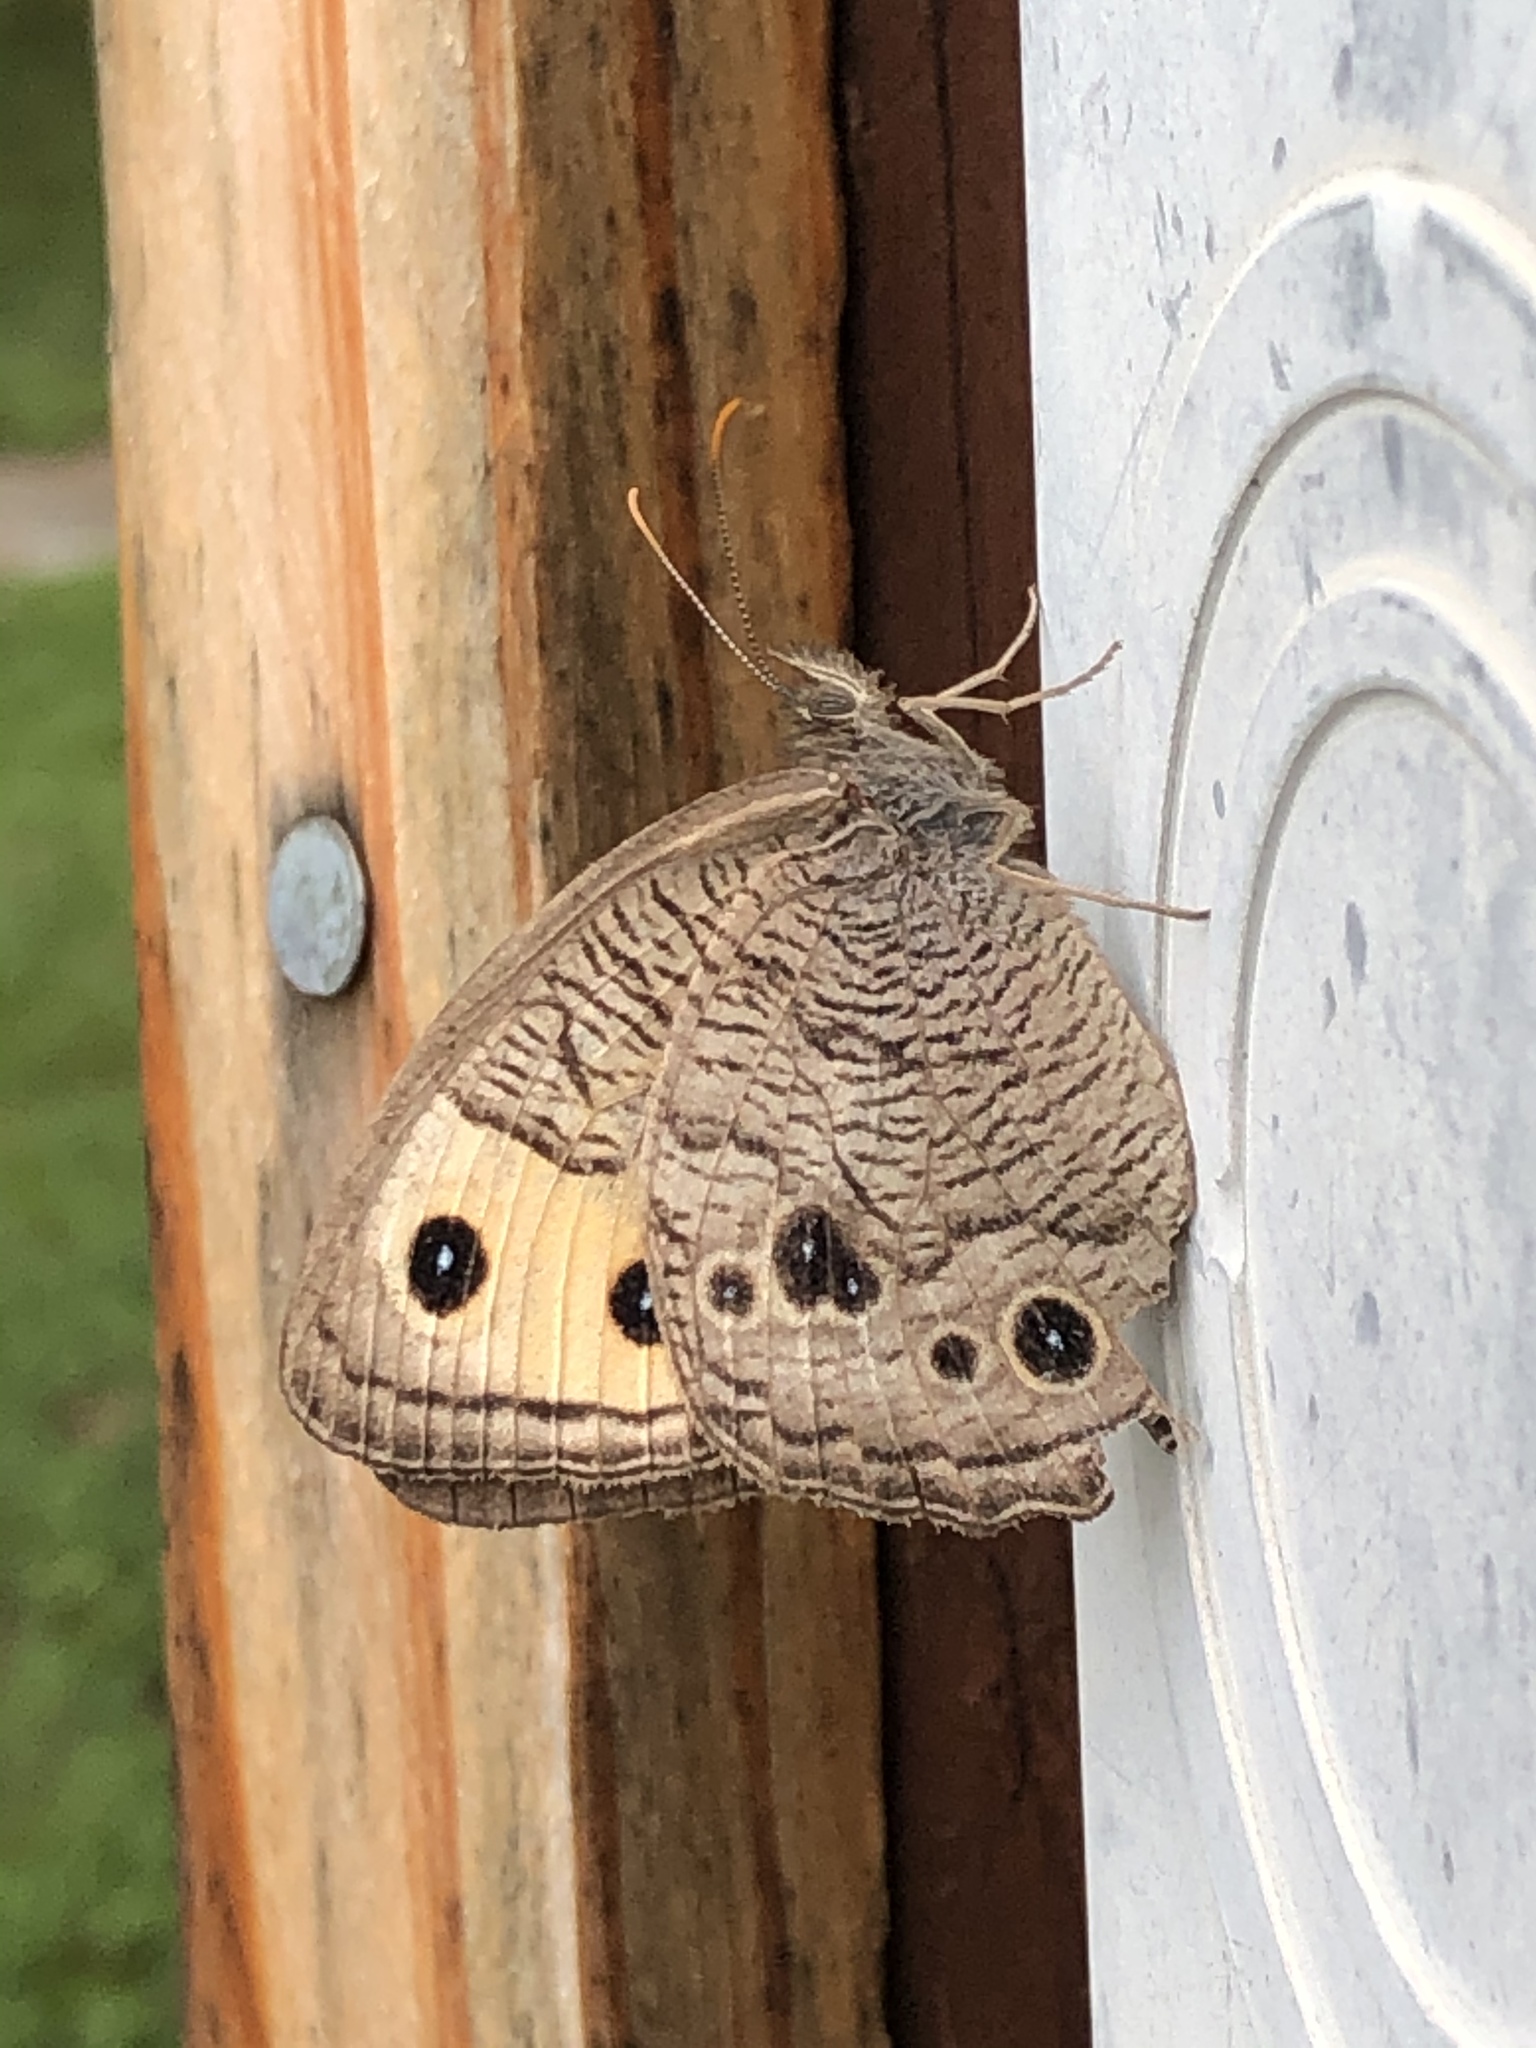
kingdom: Animalia
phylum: Arthropoda
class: Insecta
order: Lepidoptera
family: Nymphalidae
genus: Cercyonis
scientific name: Cercyonis pegala
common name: Common wood-nymph
